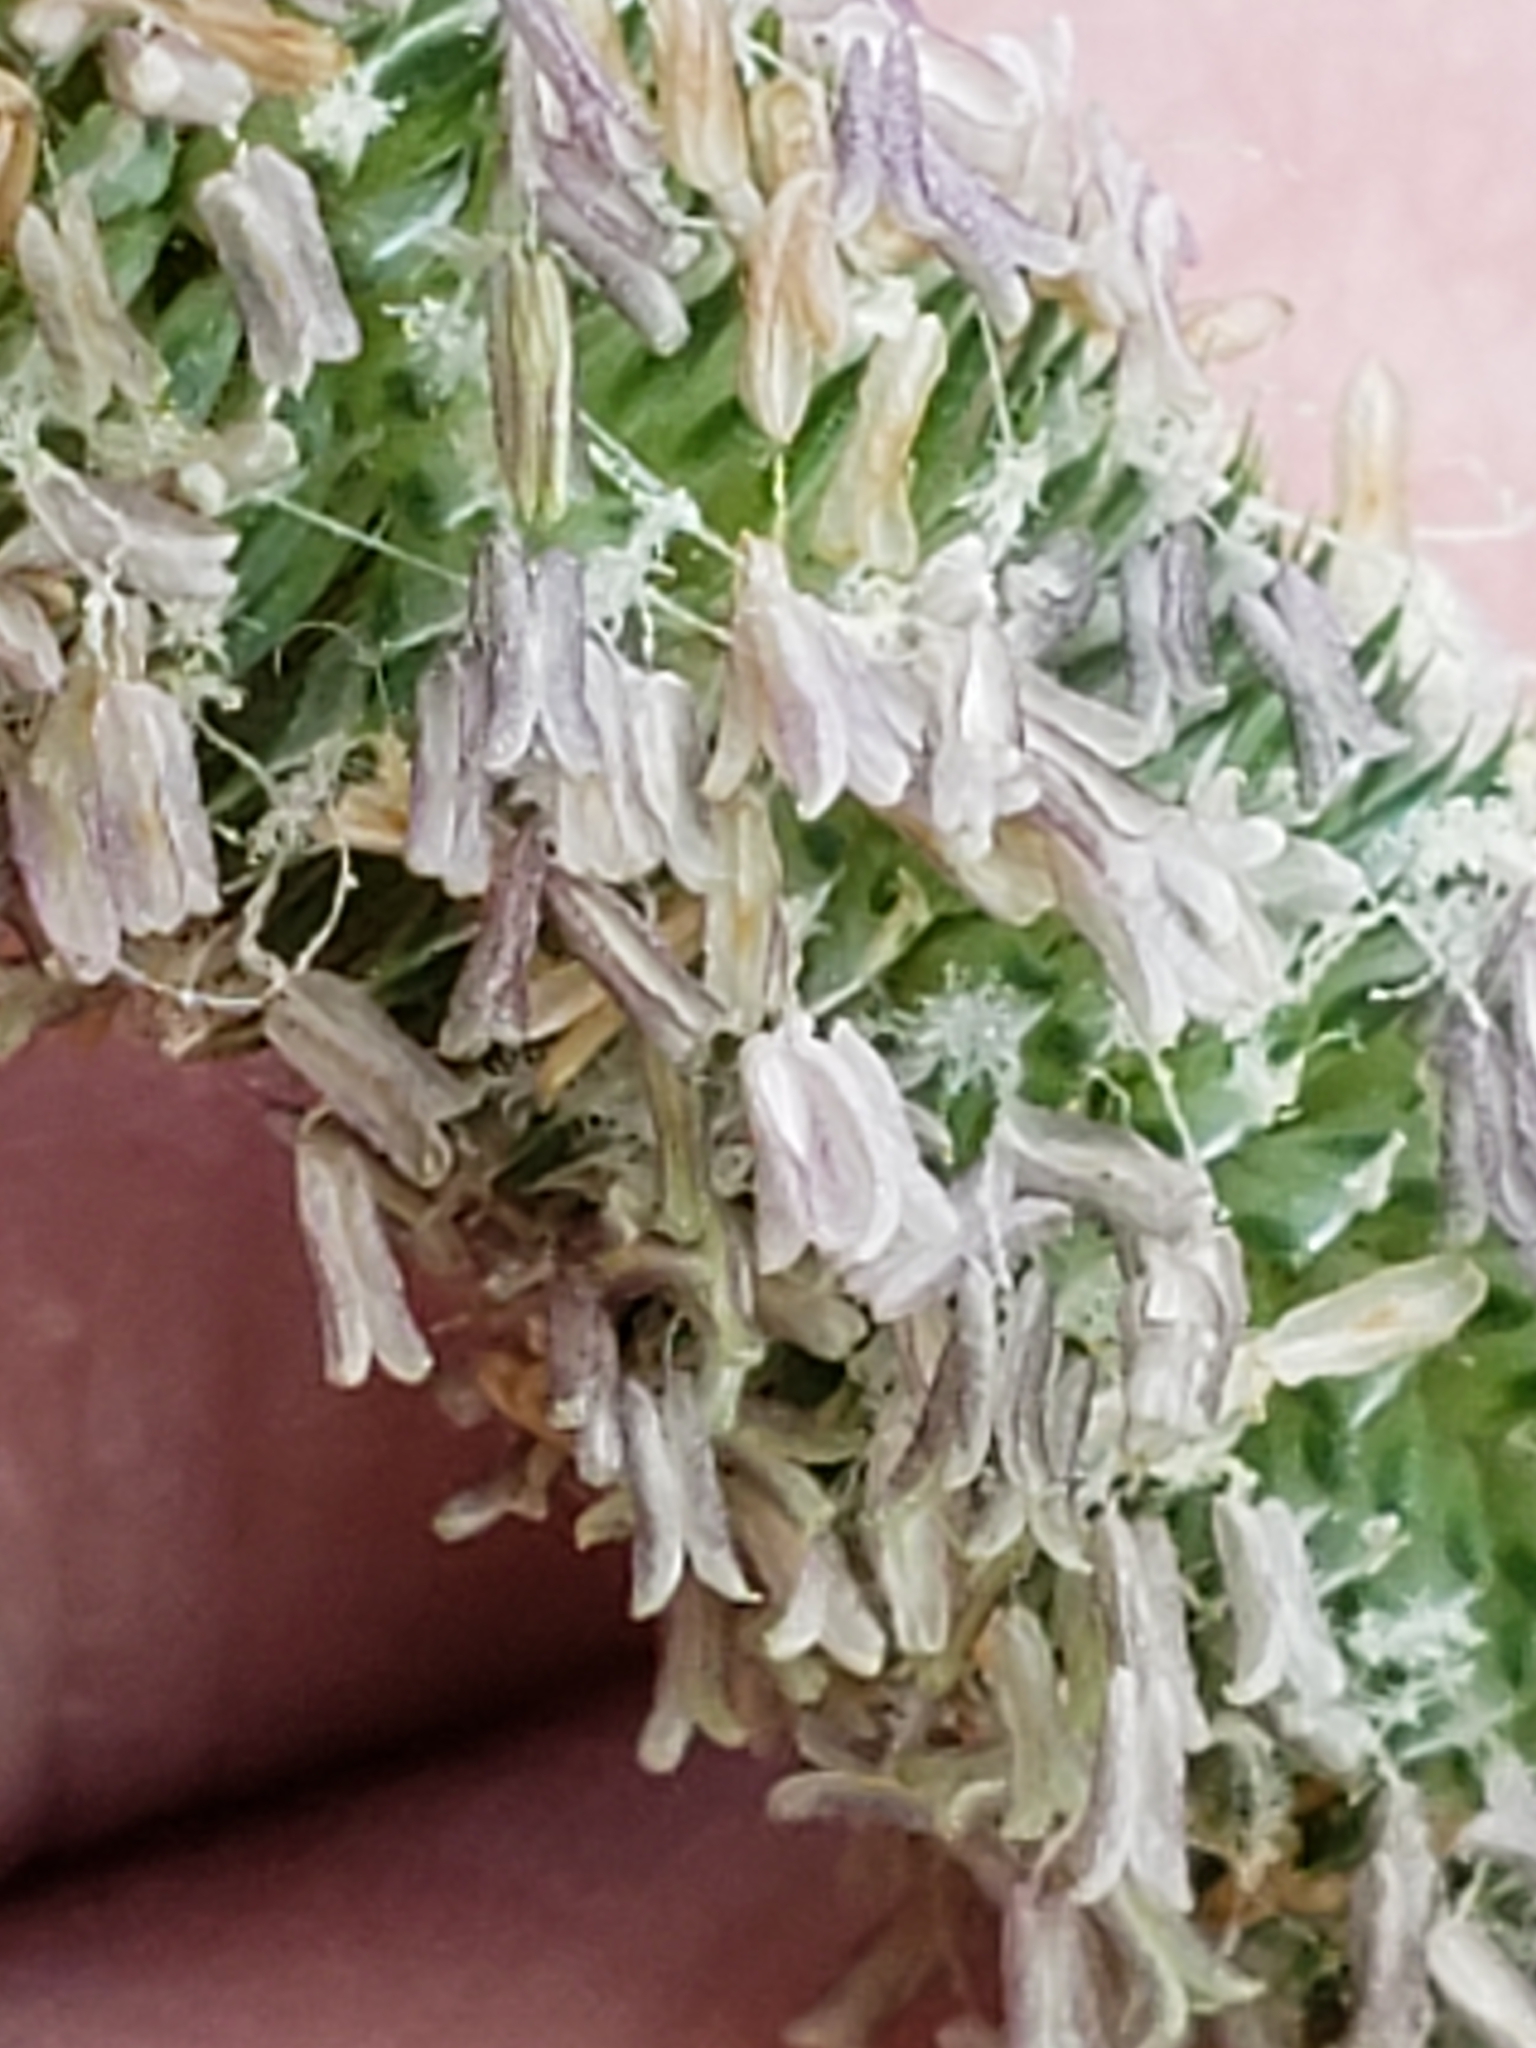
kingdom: Plantae
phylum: Tracheophyta
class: Liliopsida
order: Poales
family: Poaceae
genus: Phleum
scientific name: Phleum pratense
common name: Timothy grass
